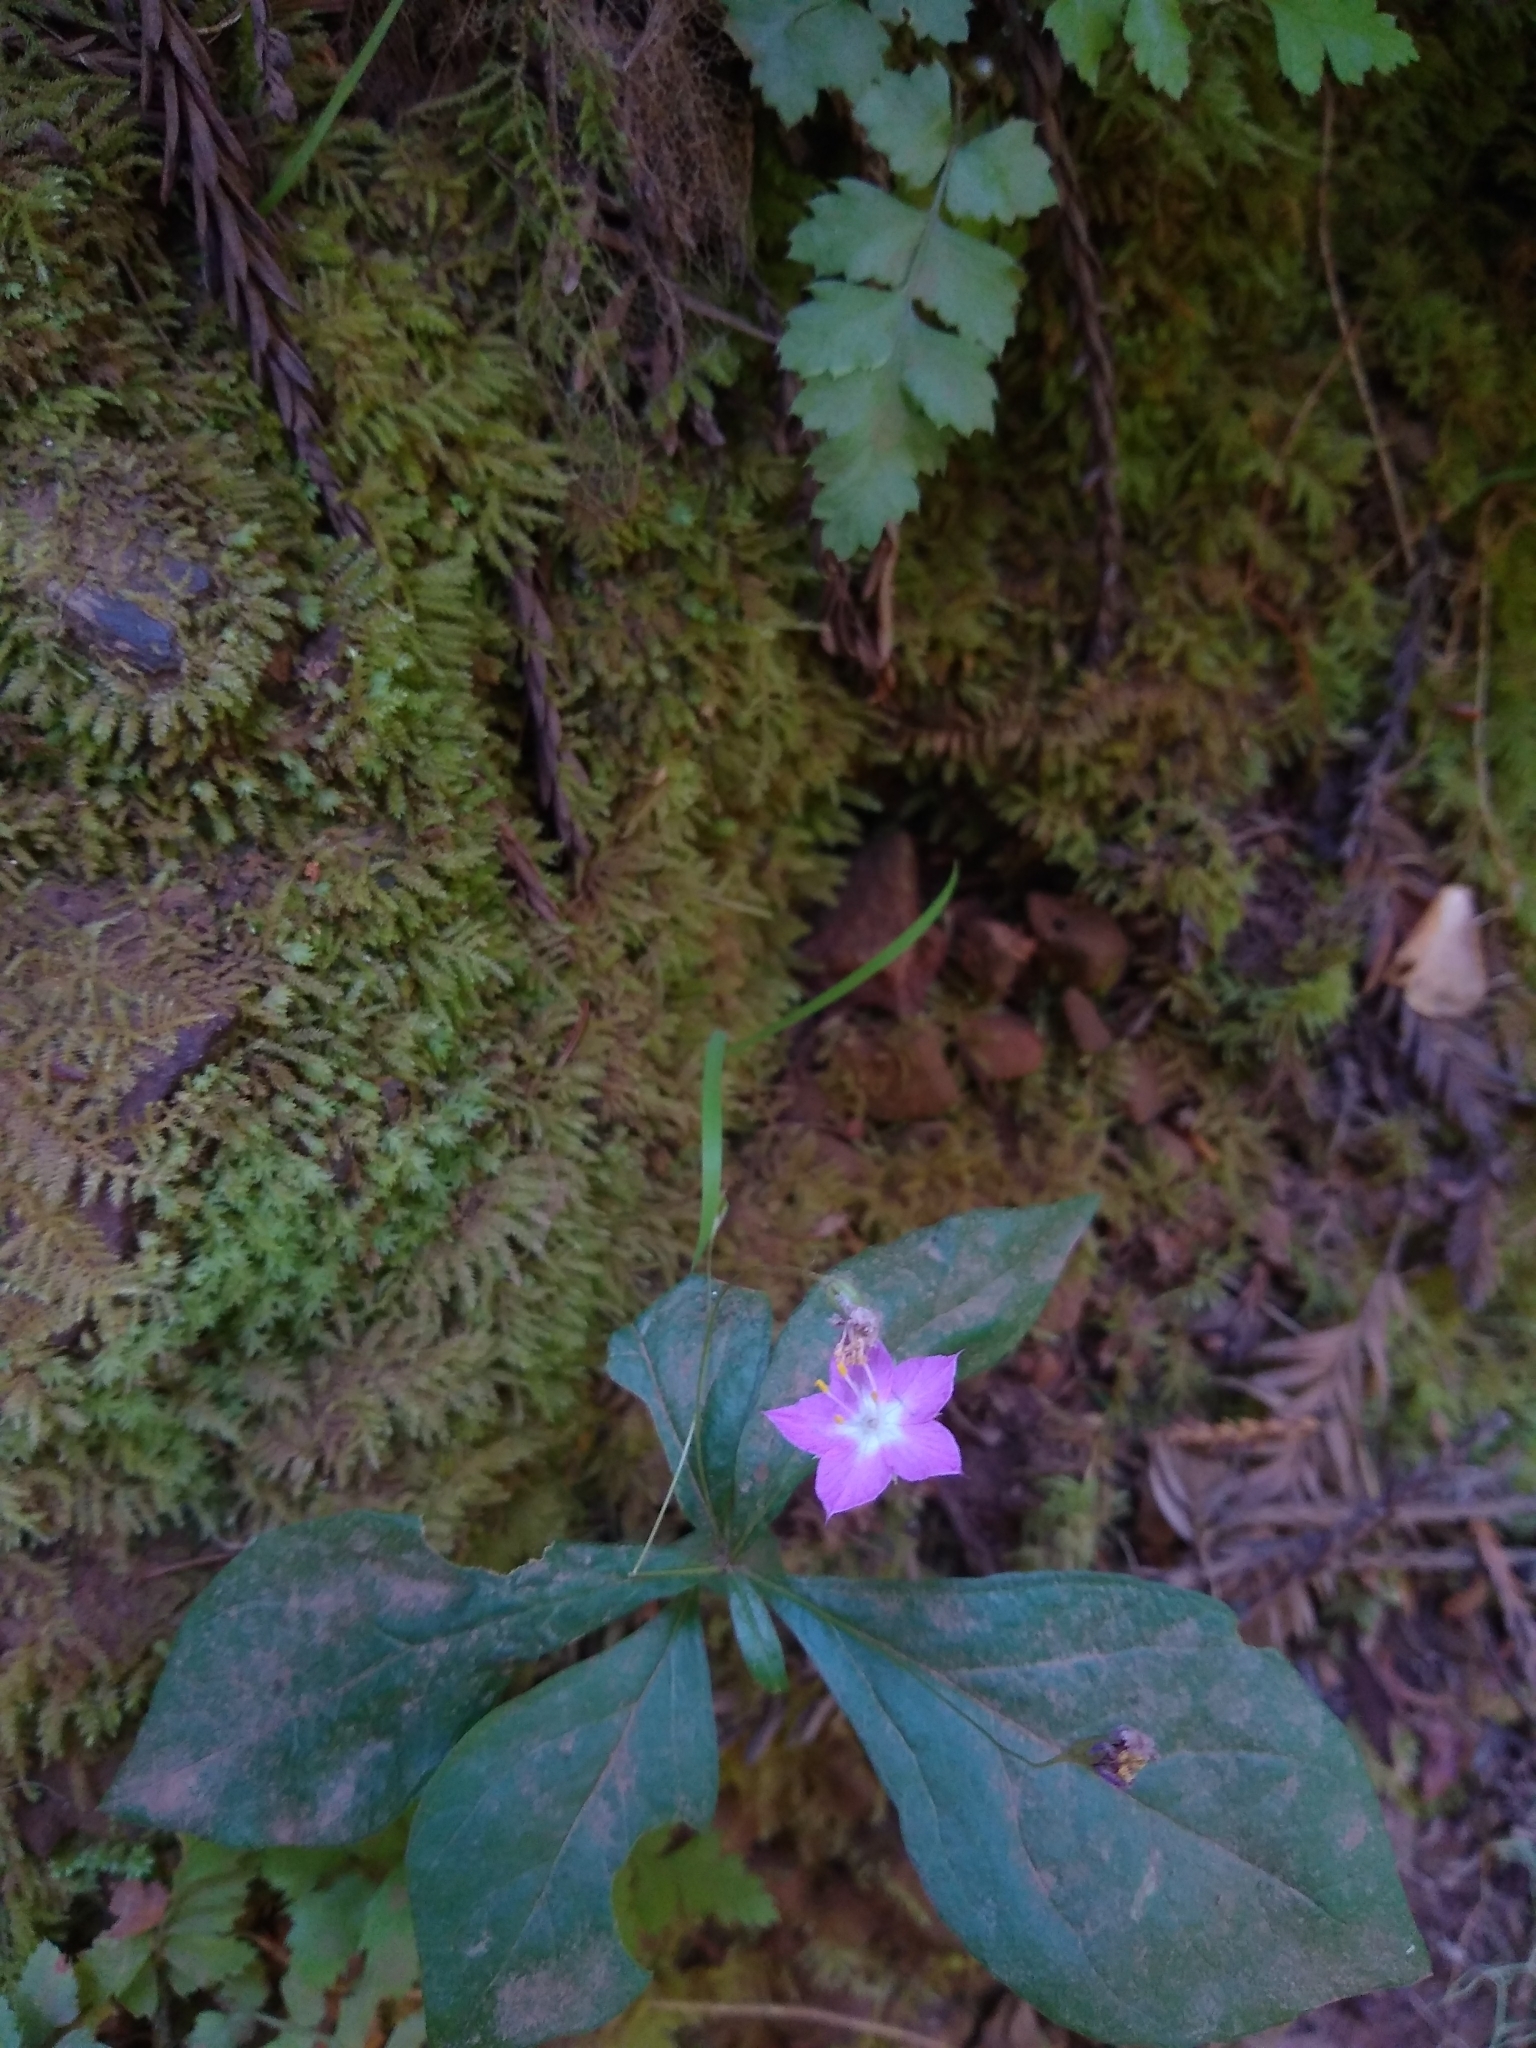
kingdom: Plantae
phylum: Tracheophyta
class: Magnoliopsida
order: Ericales
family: Primulaceae
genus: Lysimachia
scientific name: Lysimachia latifolia
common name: Pacific starflower
